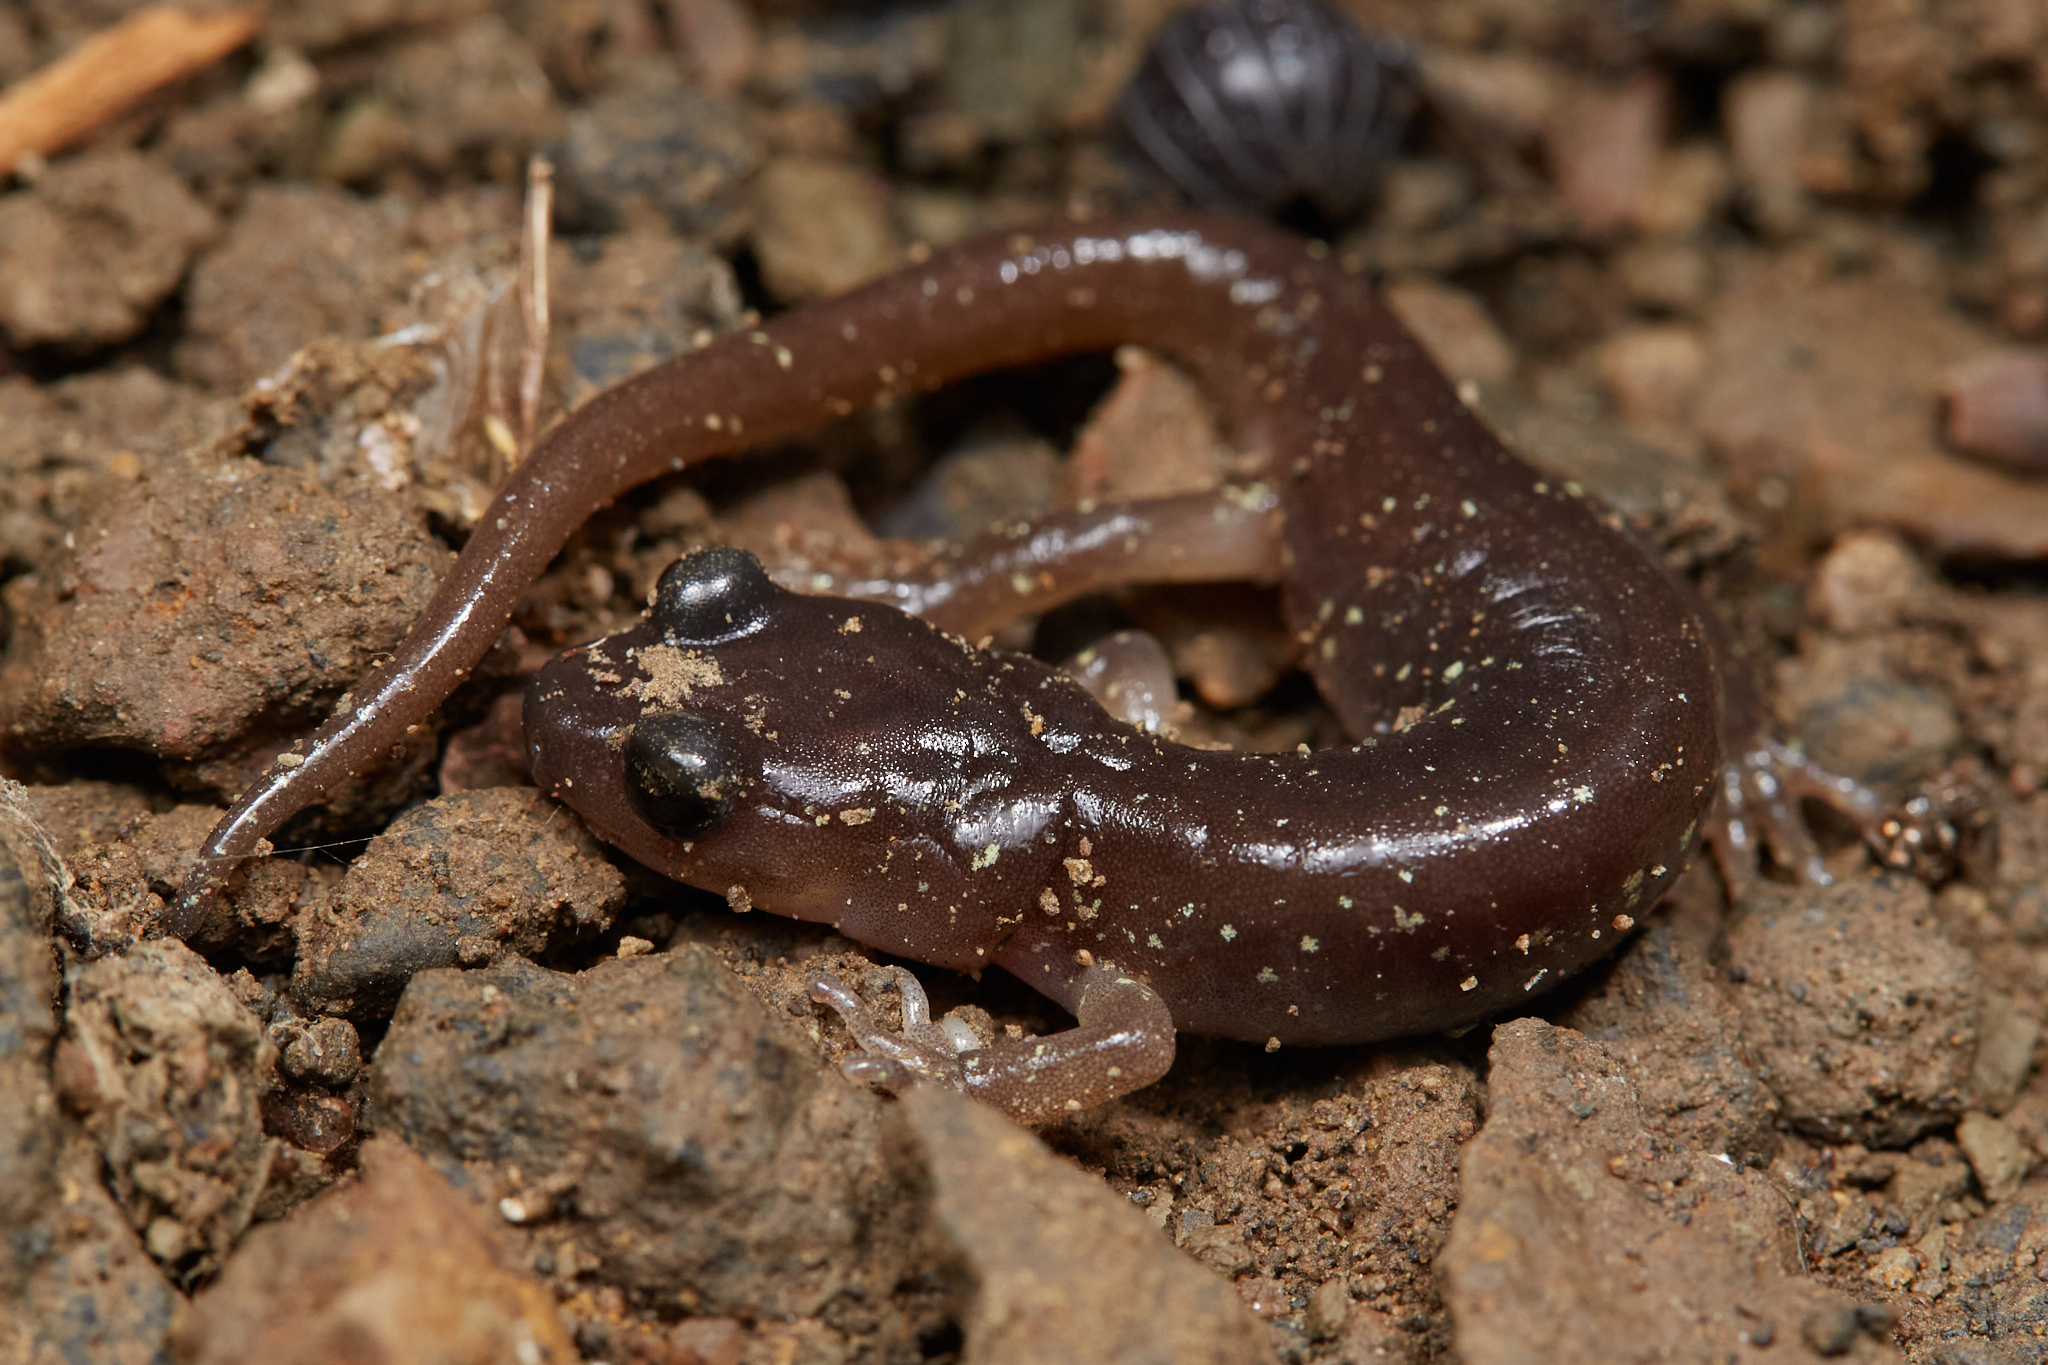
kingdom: Animalia
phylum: Chordata
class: Amphibia
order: Caudata
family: Plethodontidae
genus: Aneides
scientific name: Aneides lugubris
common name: Arboreal salamander
